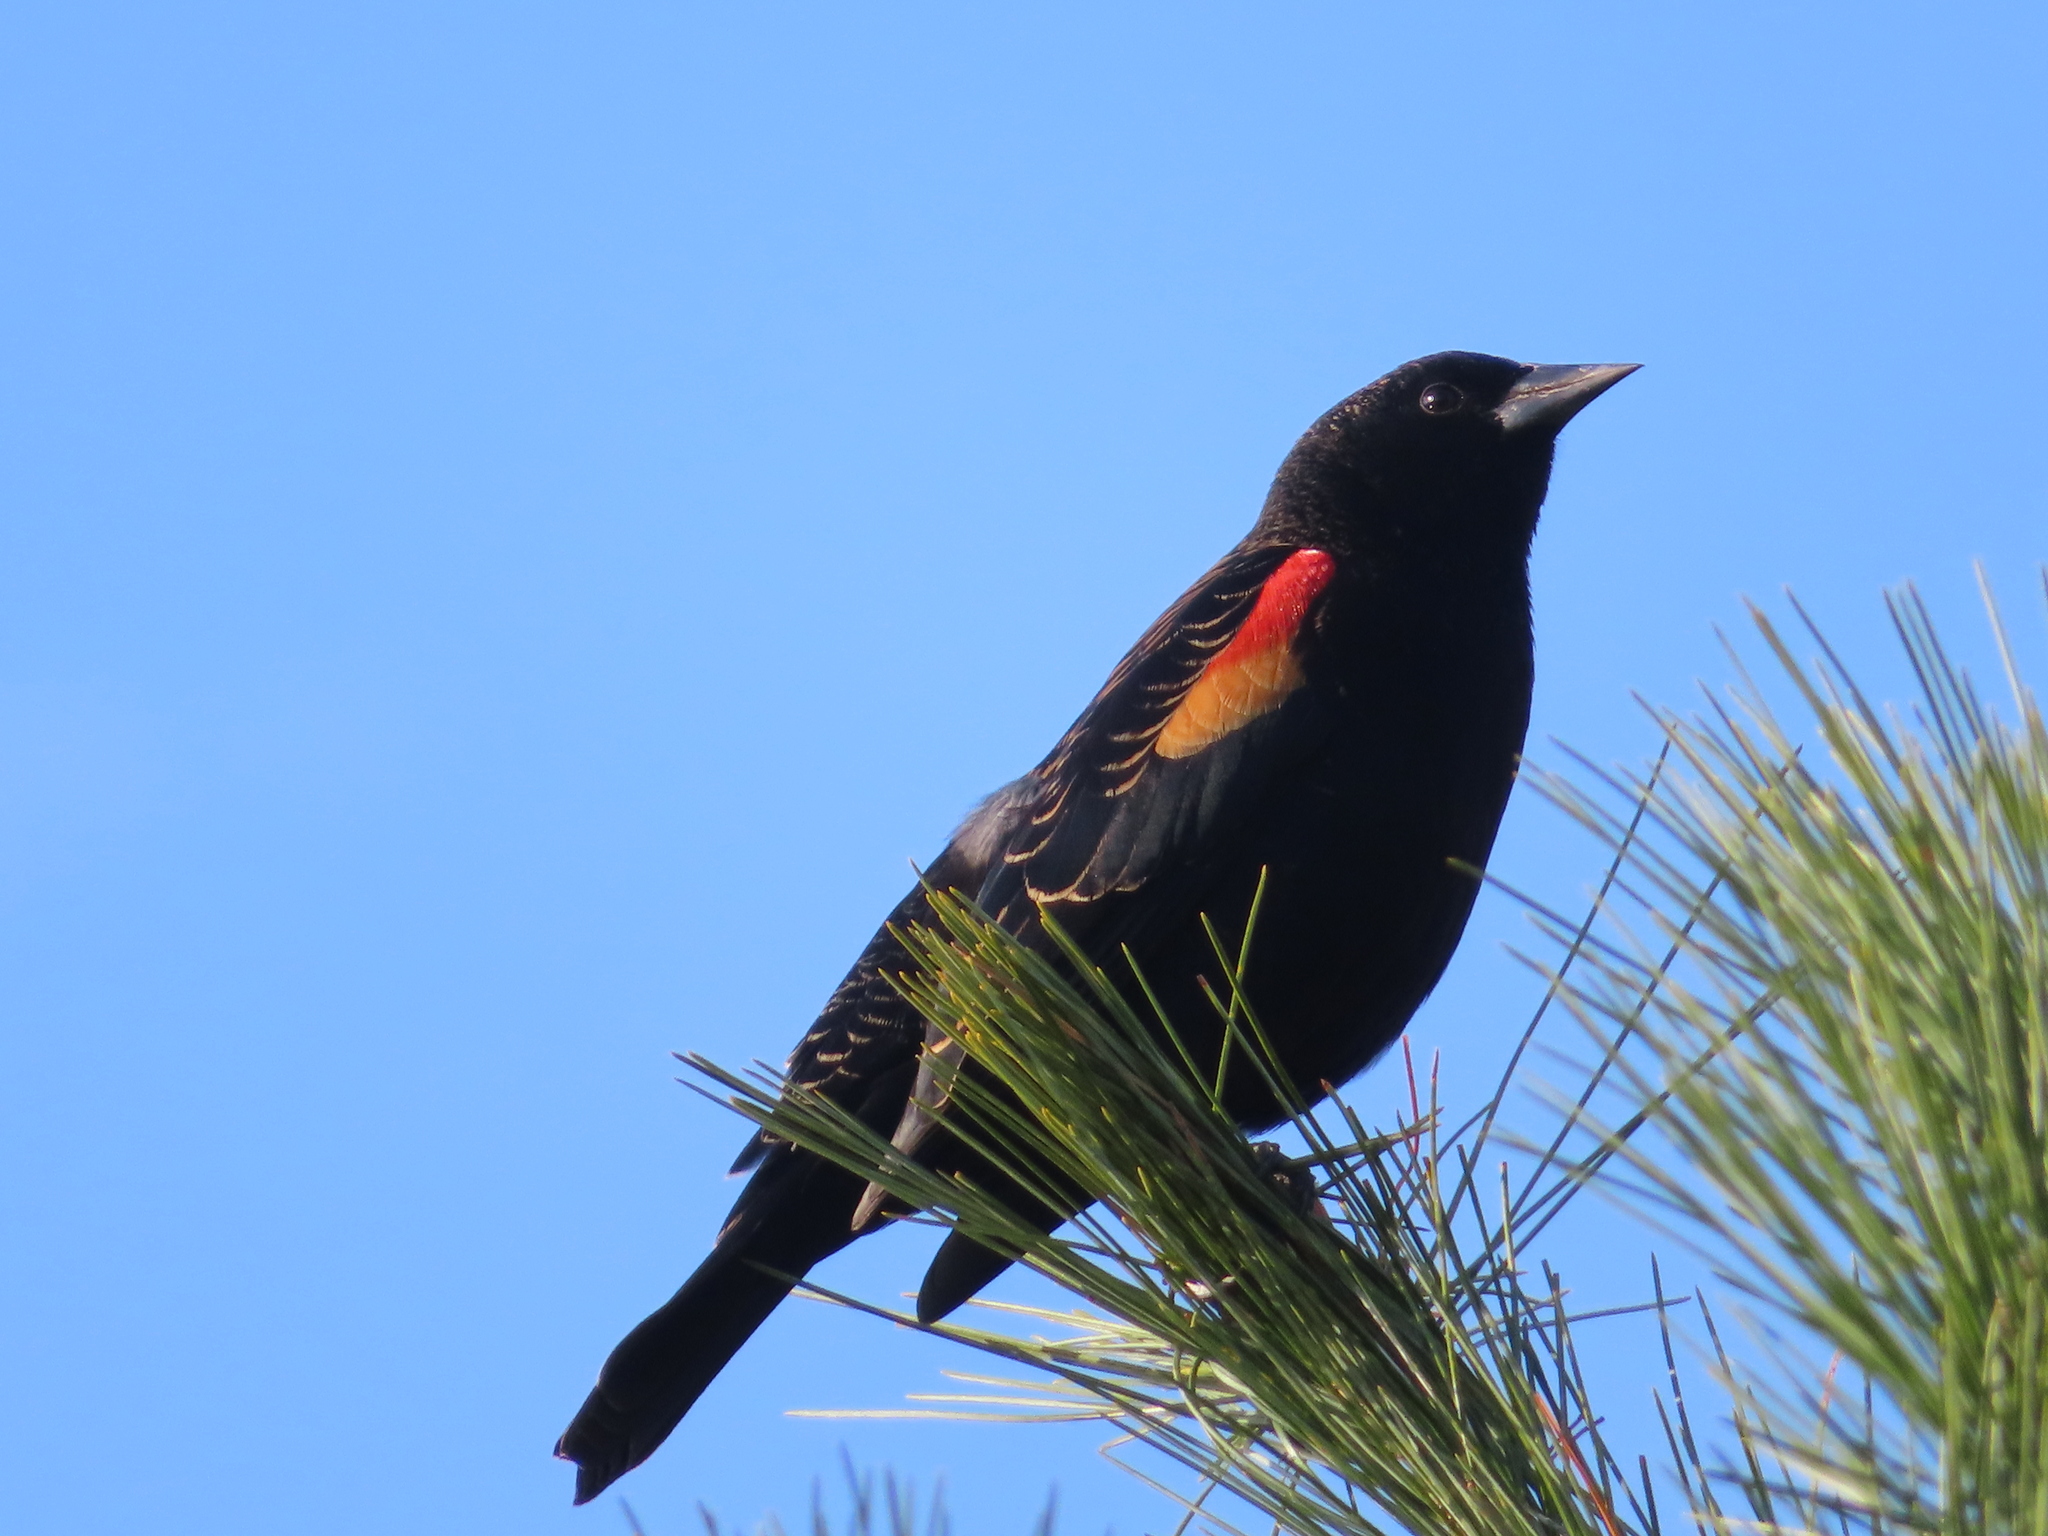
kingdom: Animalia
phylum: Chordata
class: Aves
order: Passeriformes
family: Icteridae
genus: Agelaius
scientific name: Agelaius phoeniceus
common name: Red-winged blackbird
